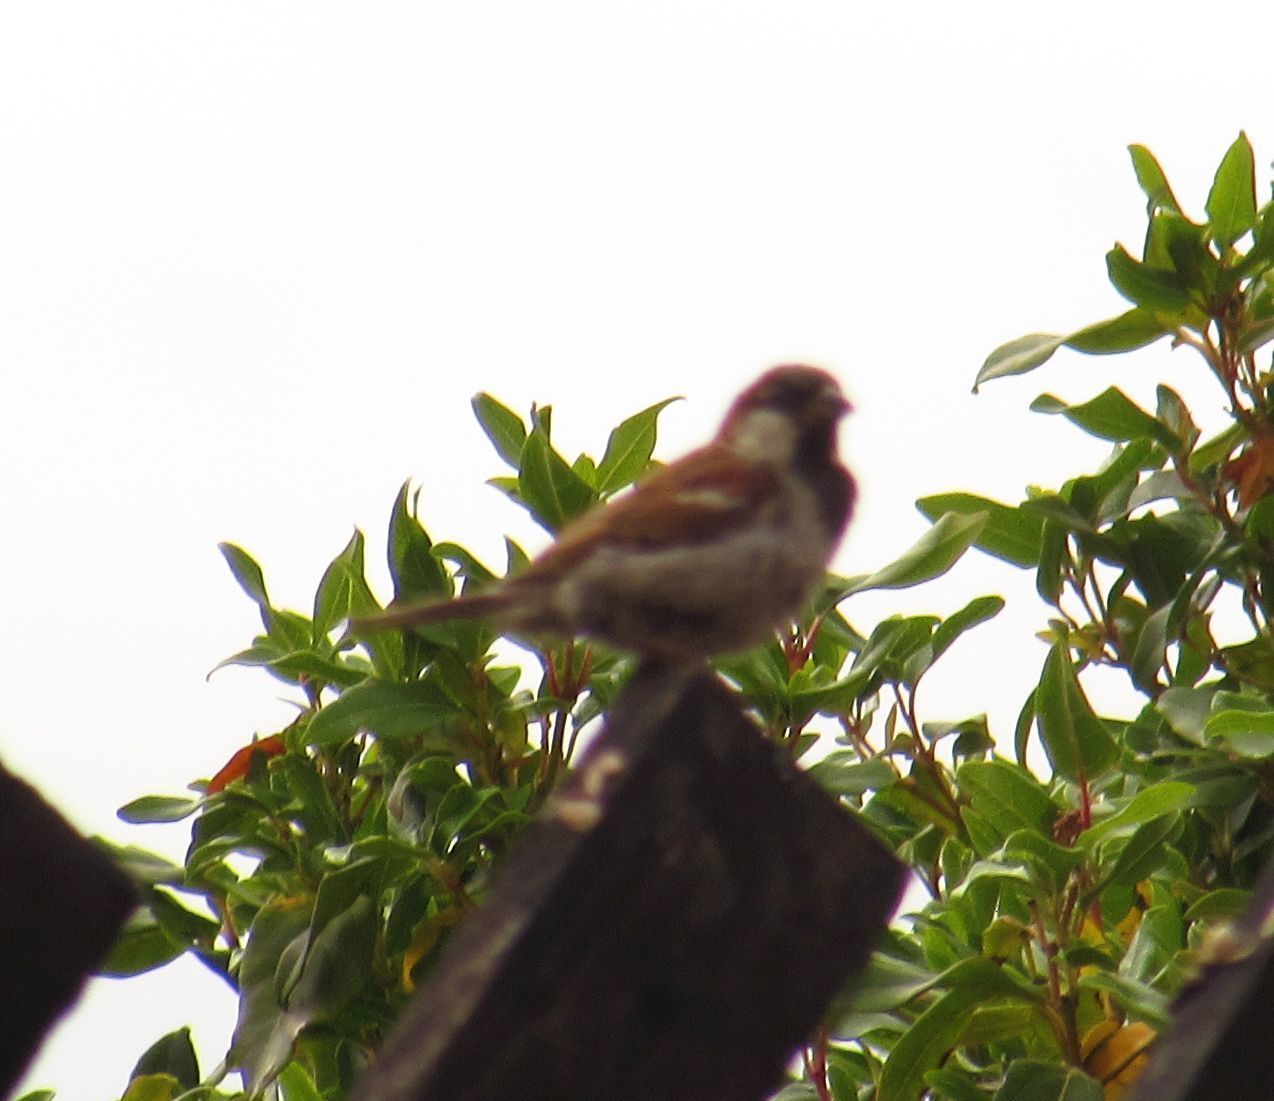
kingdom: Animalia
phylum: Chordata
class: Aves
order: Passeriformes
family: Passeridae
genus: Passer
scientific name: Passer domesticus
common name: House sparrow
